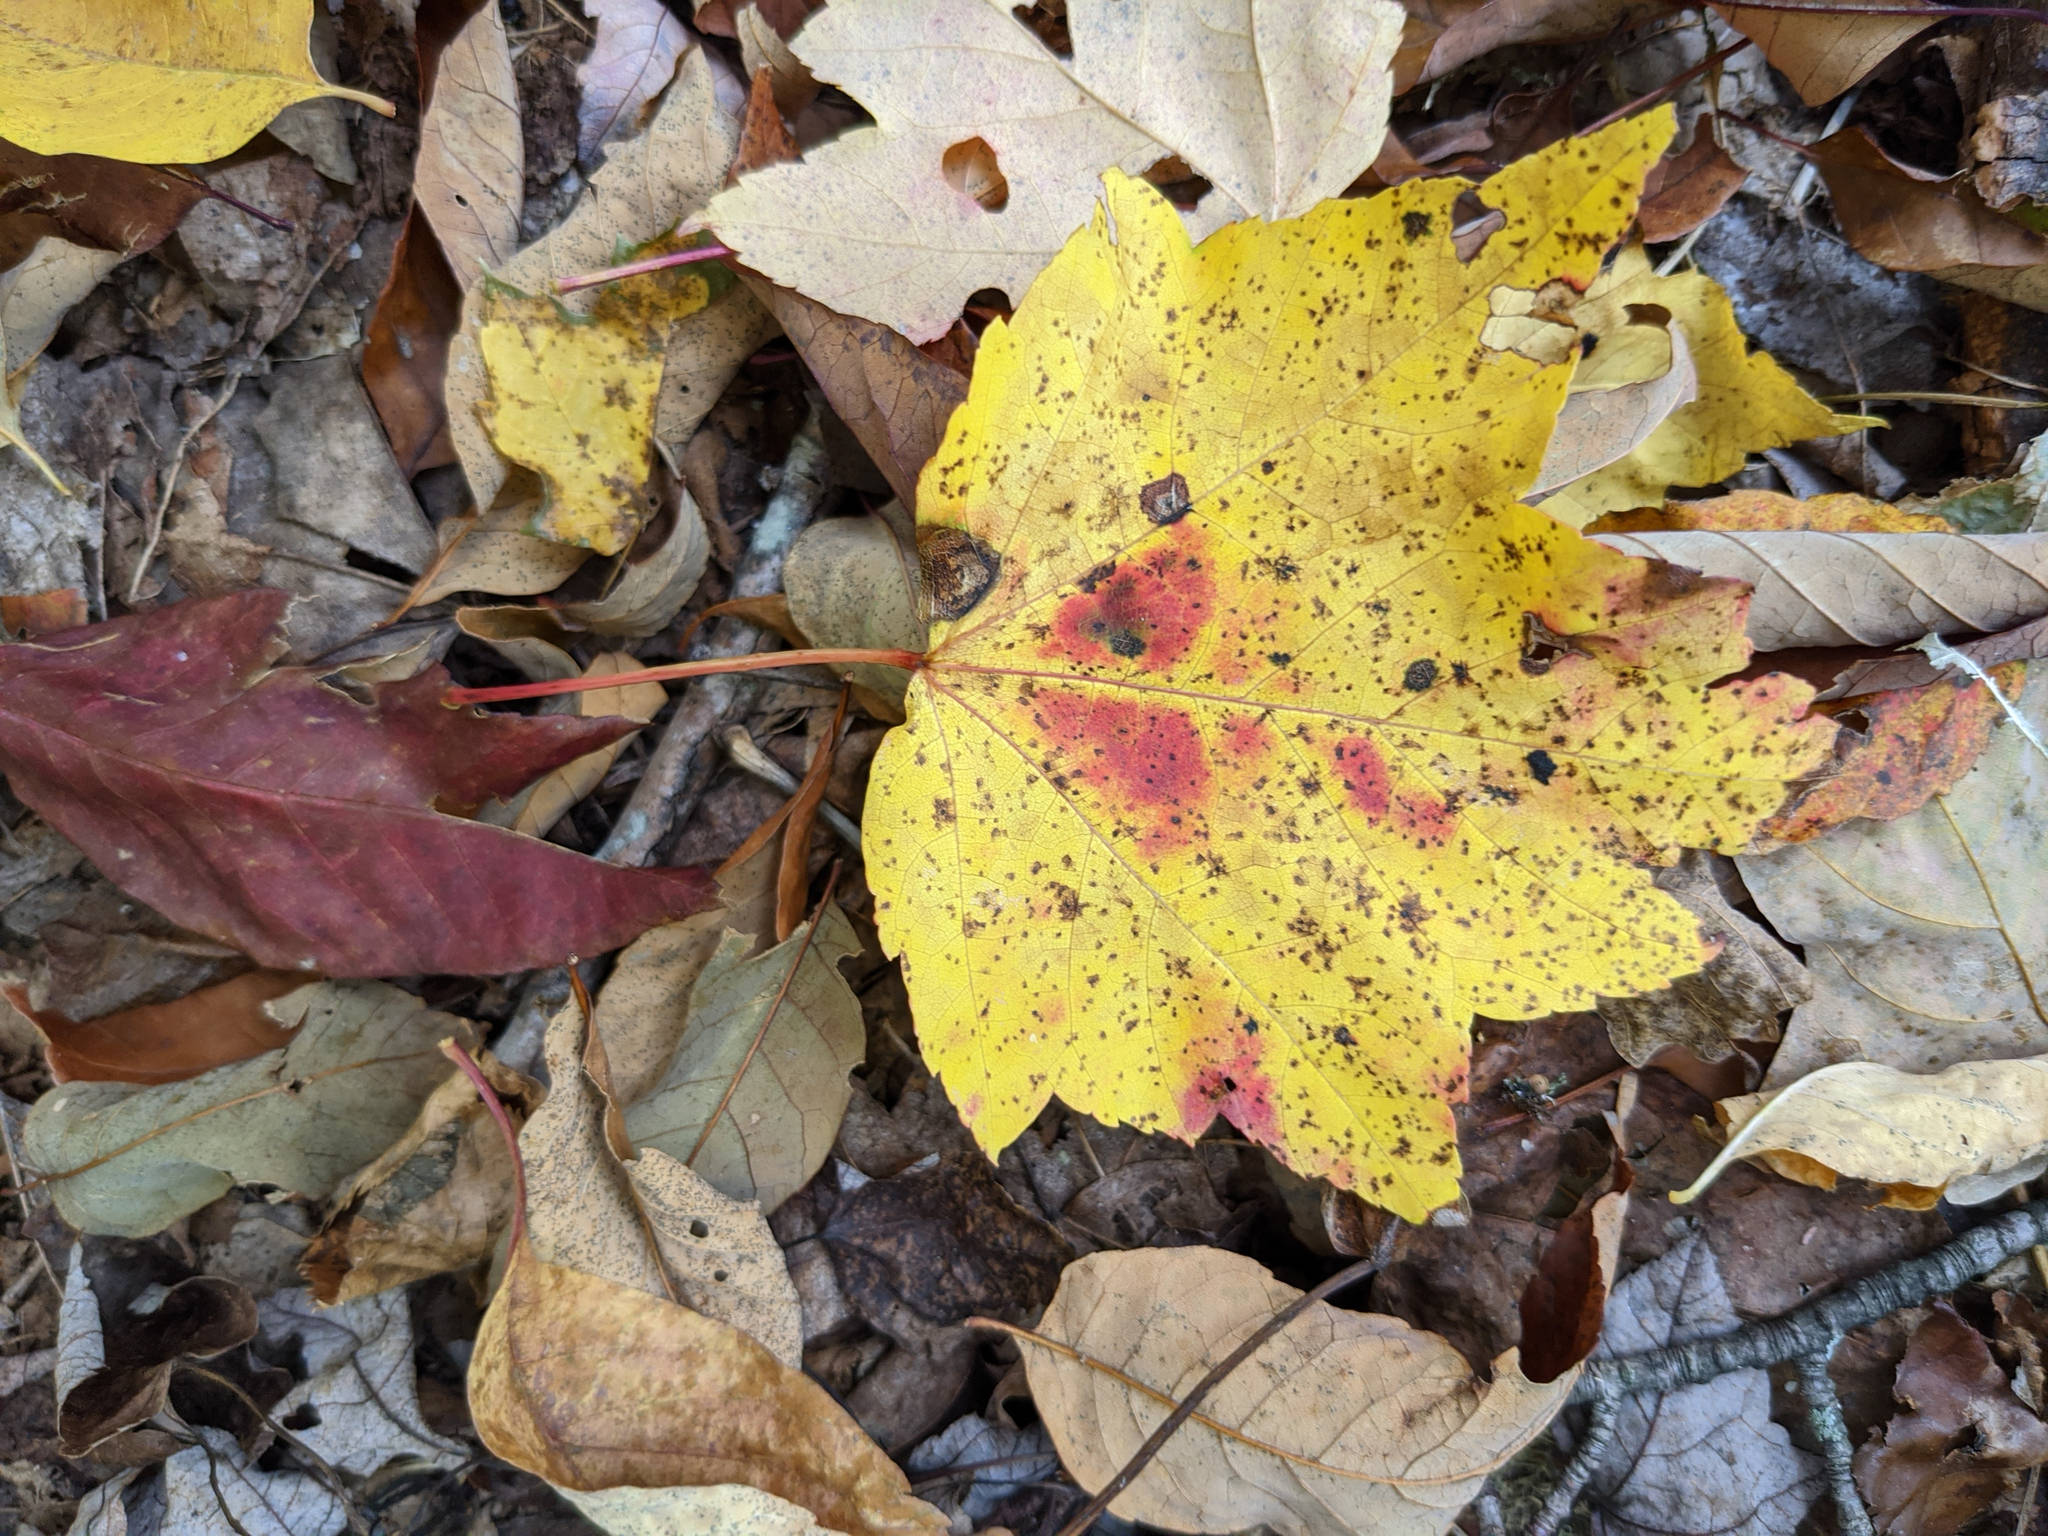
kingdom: Plantae
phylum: Tracheophyta
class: Magnoliopsida
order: Sapindales
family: Sapindaceae
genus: Acer
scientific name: Acer rubrum
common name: Red maple
